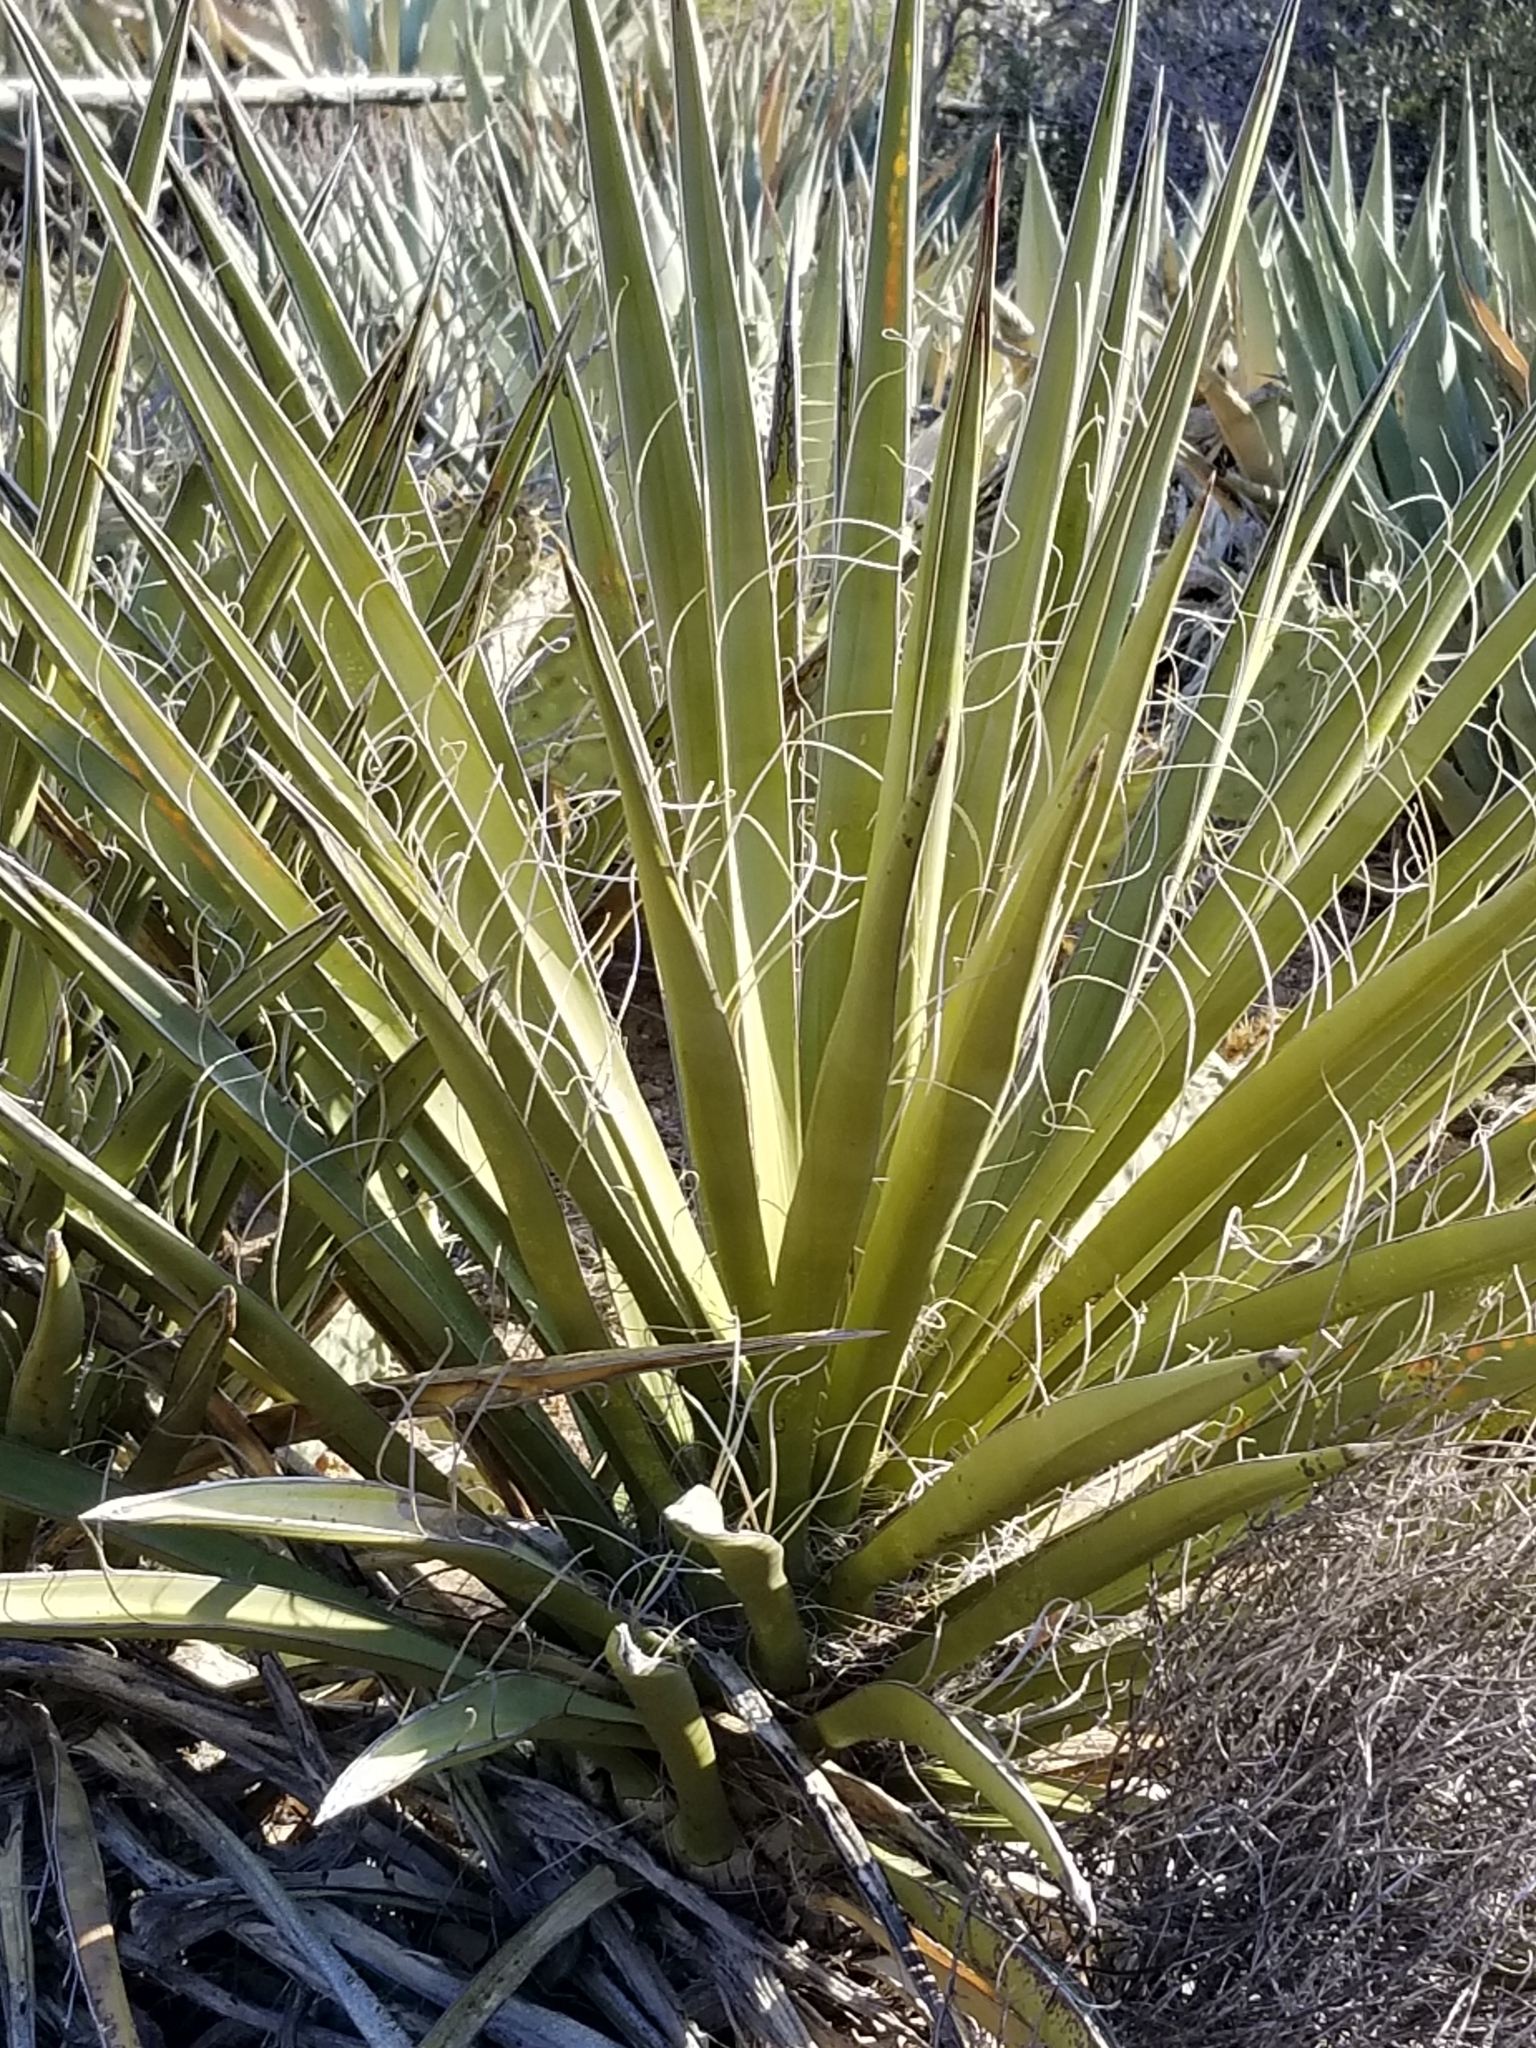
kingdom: Plantae
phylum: Tracheophyta
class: Liliopsida
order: Asparagales
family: Asparagaceae
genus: Yucca
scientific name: Yucca schidigera
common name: Mojave yucca
